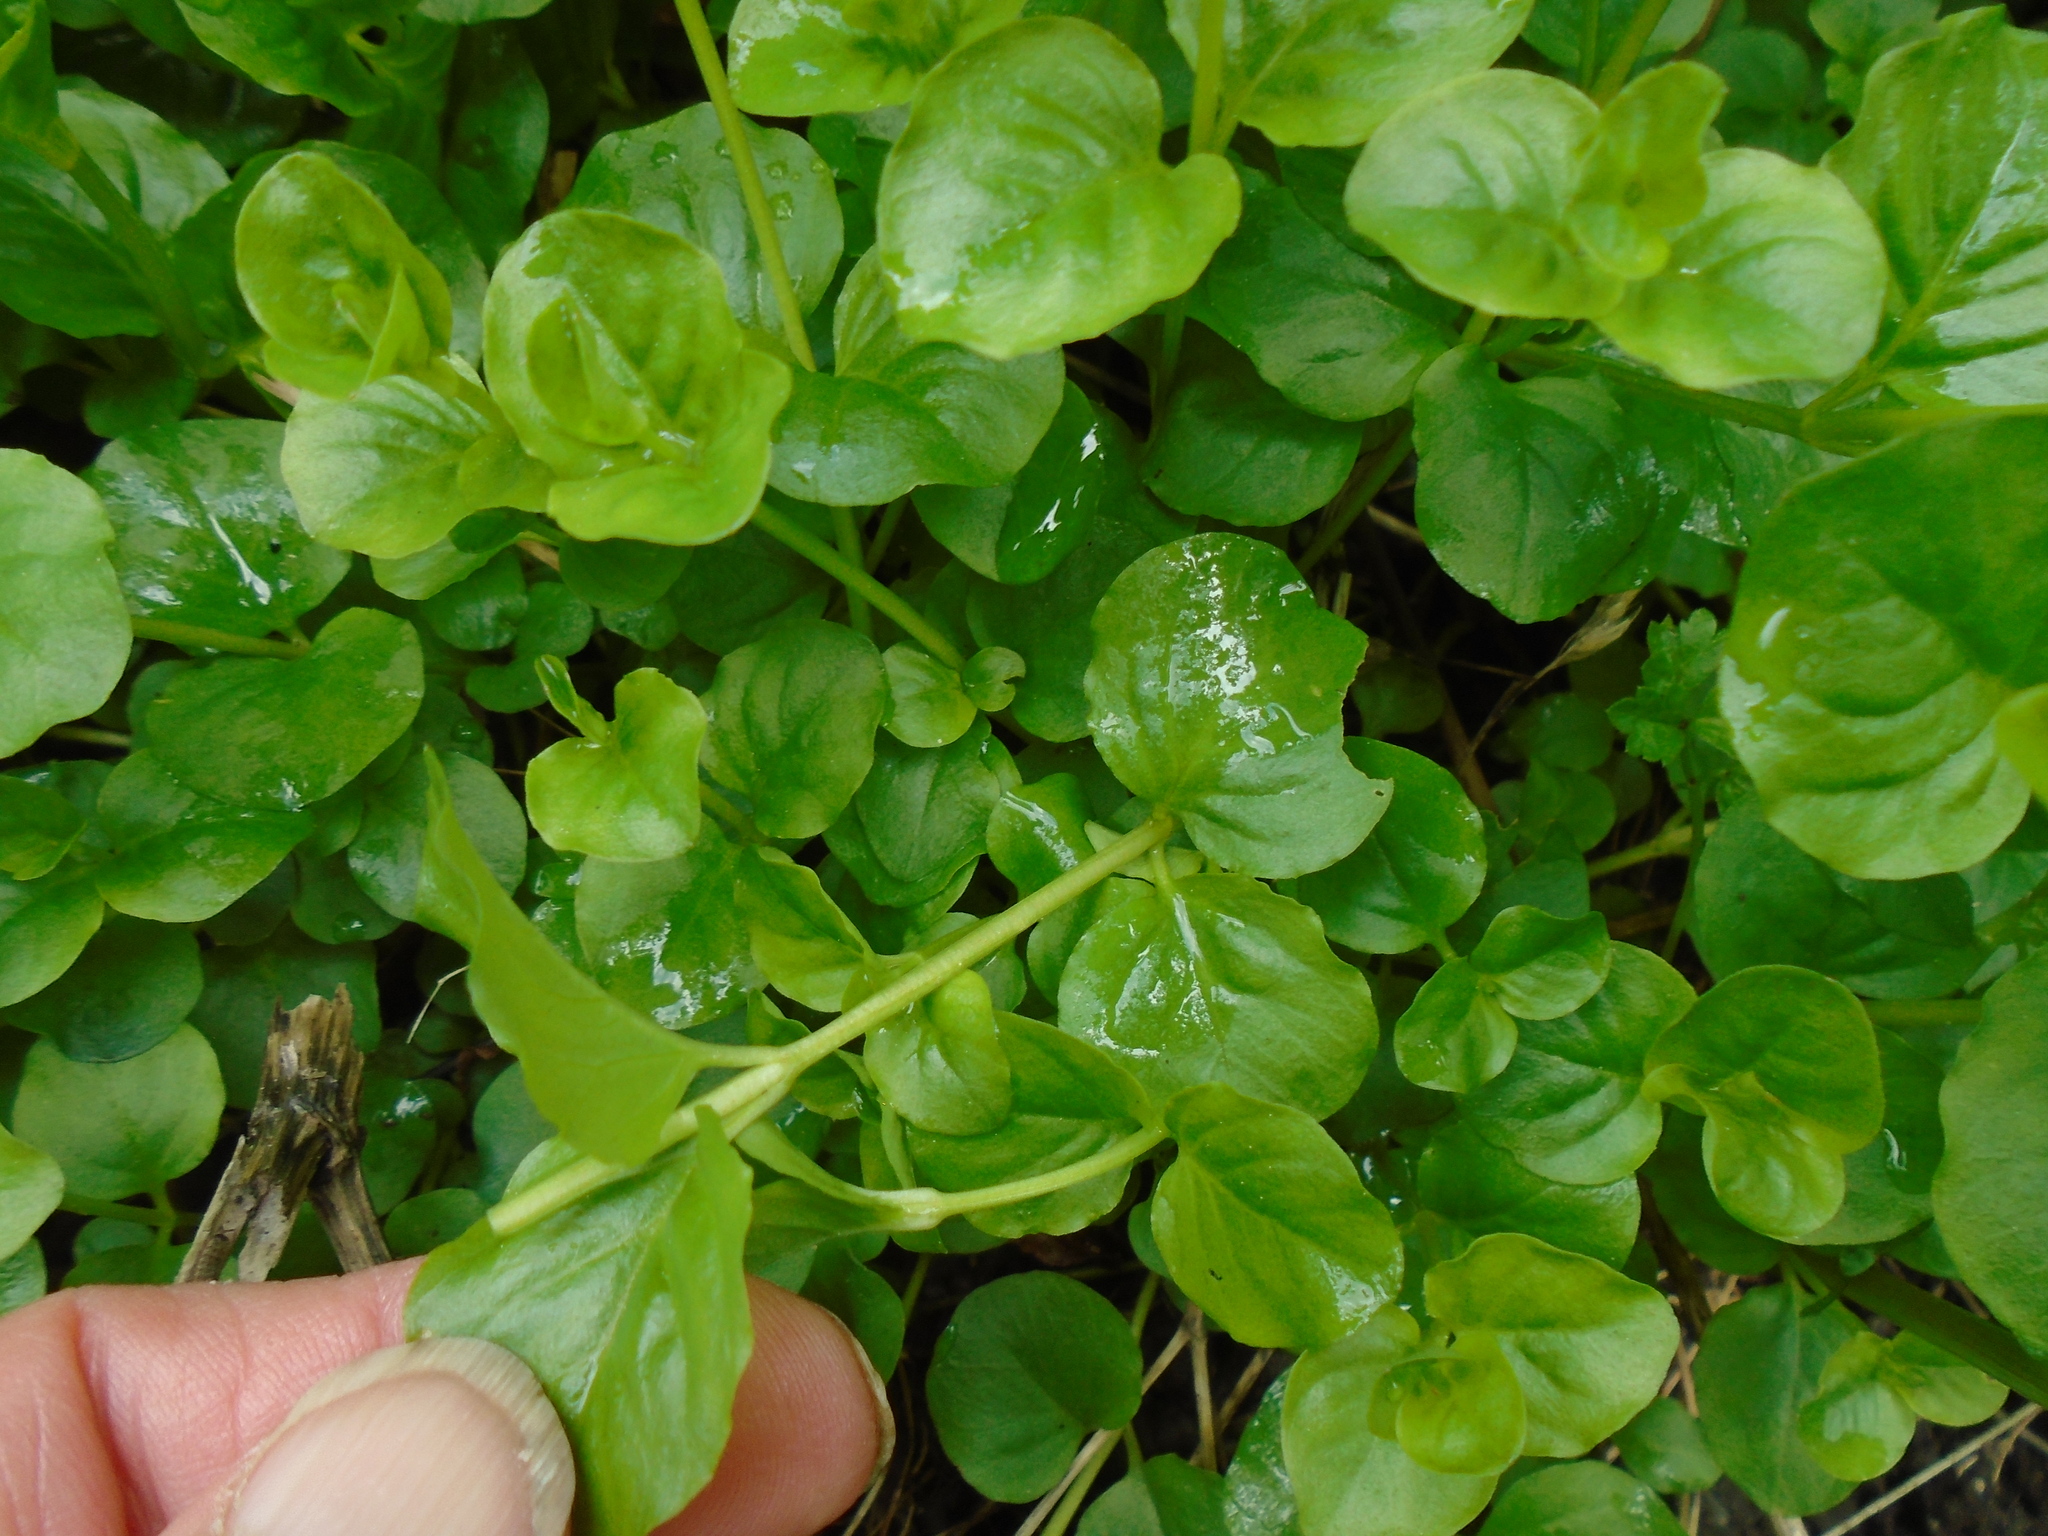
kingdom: Plantae
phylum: Tracheophyta
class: Magnoliopsida
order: Ericales
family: Primulaceae
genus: Lysimachia
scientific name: Lysimachia nummularia
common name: Moneywort
